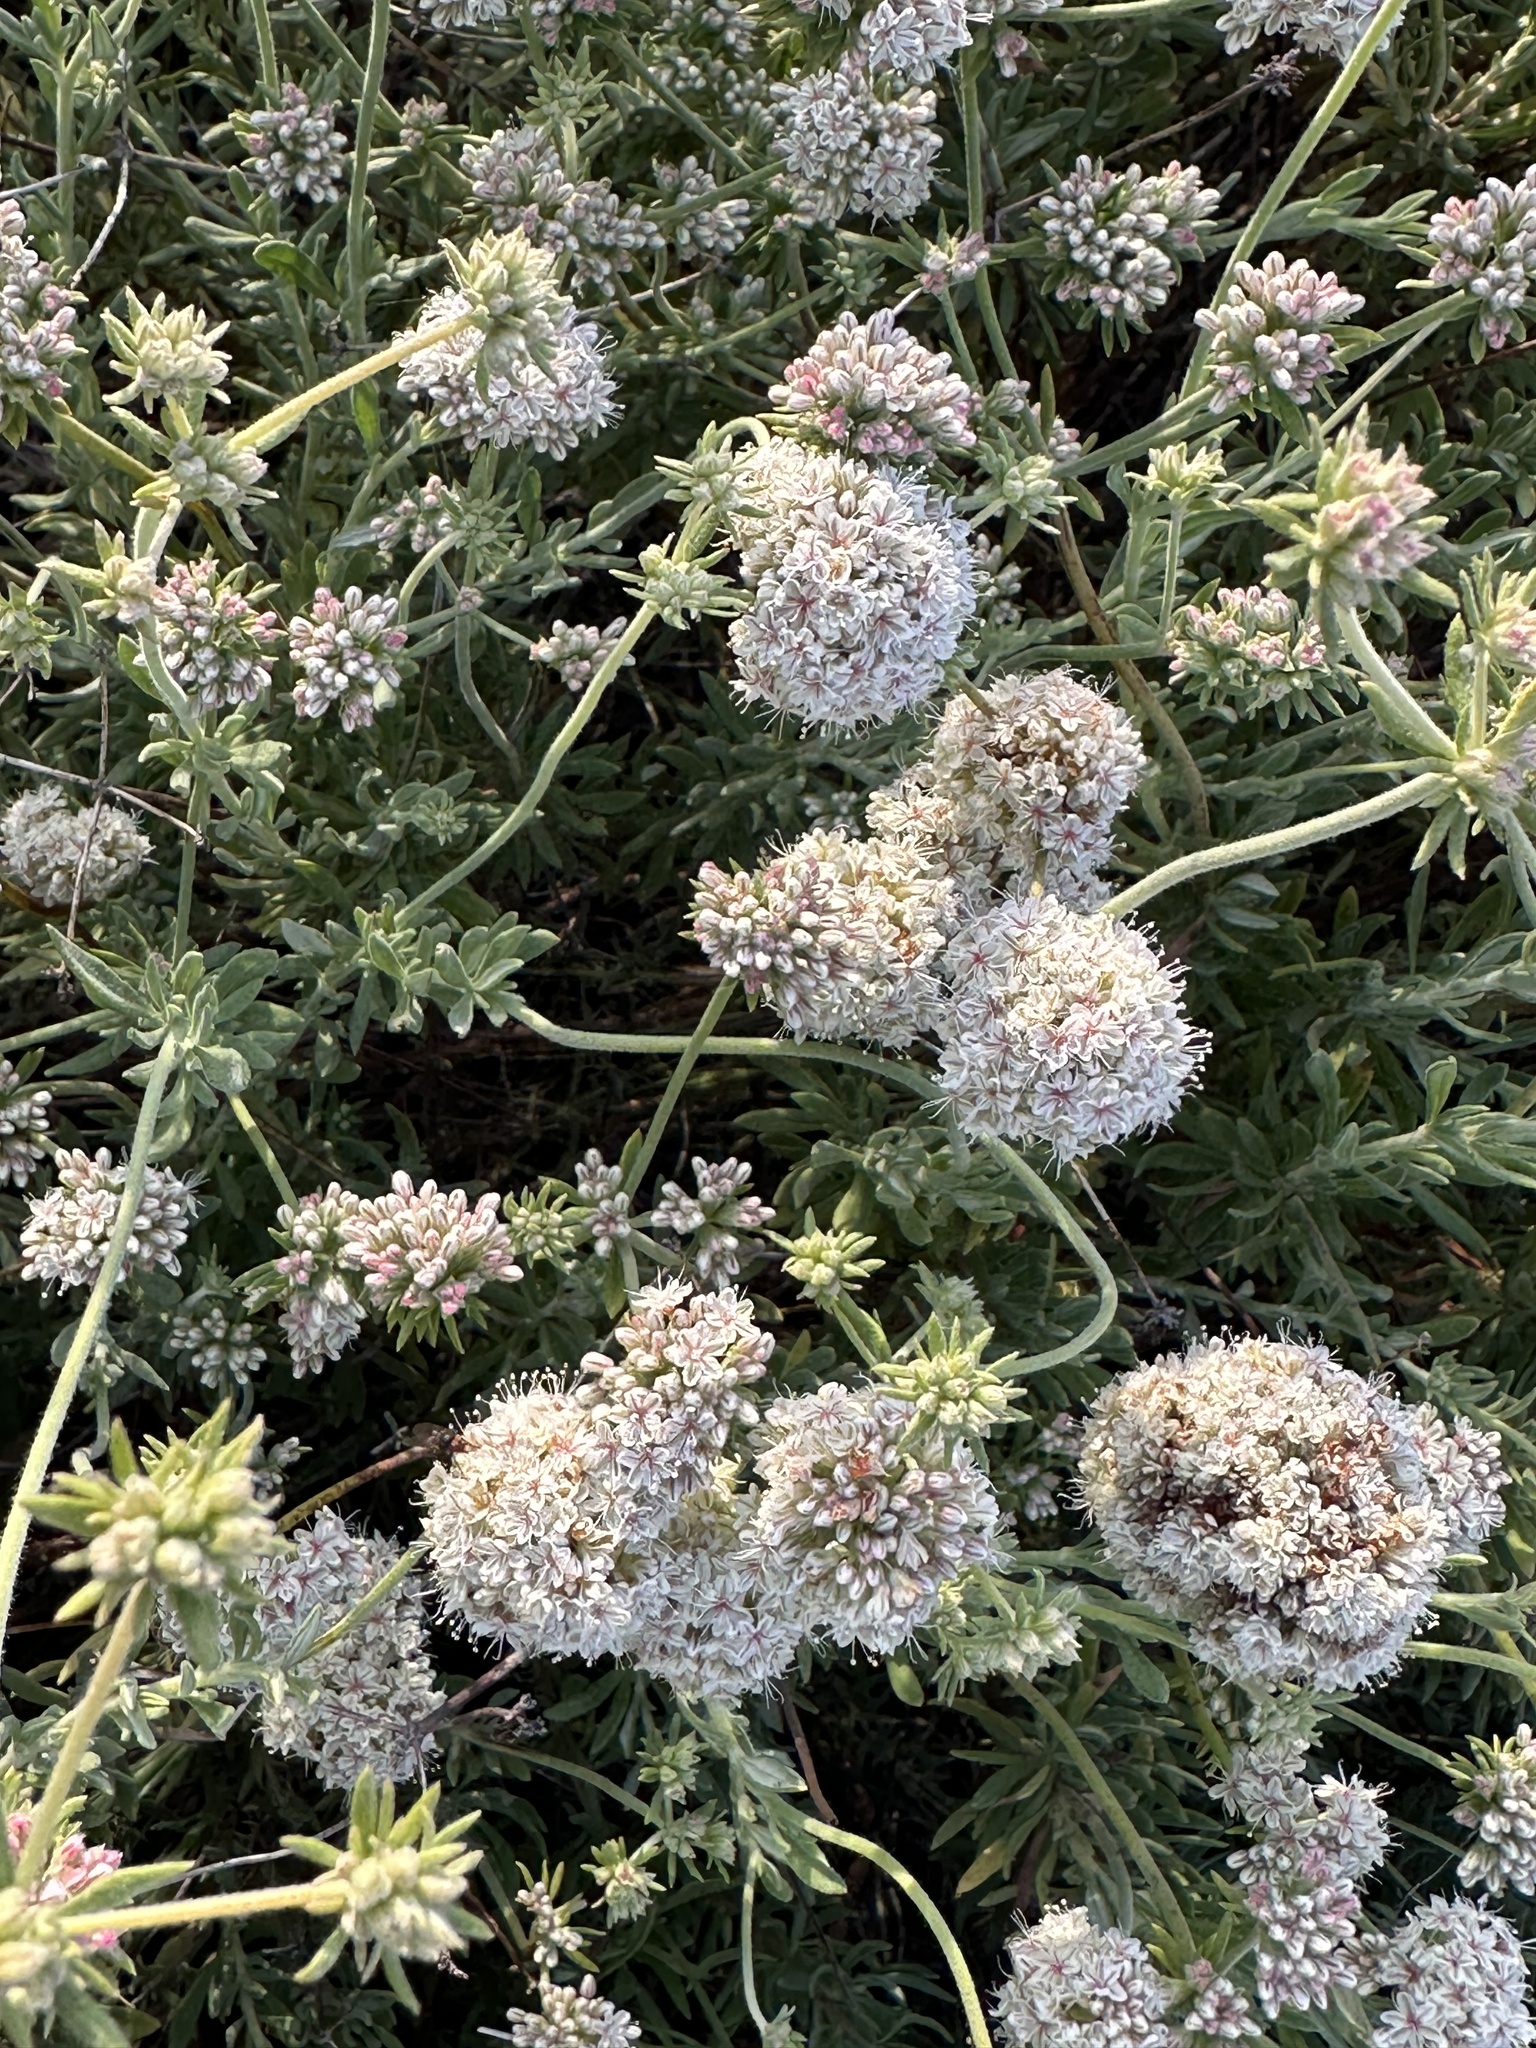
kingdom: Plantae
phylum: Tracheophyta
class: Magnoliopsida
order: Caryophyllales
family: Polygonaceae
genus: Eriogonum
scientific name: Eriogonum fasciculatum
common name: California wild buckwheat
